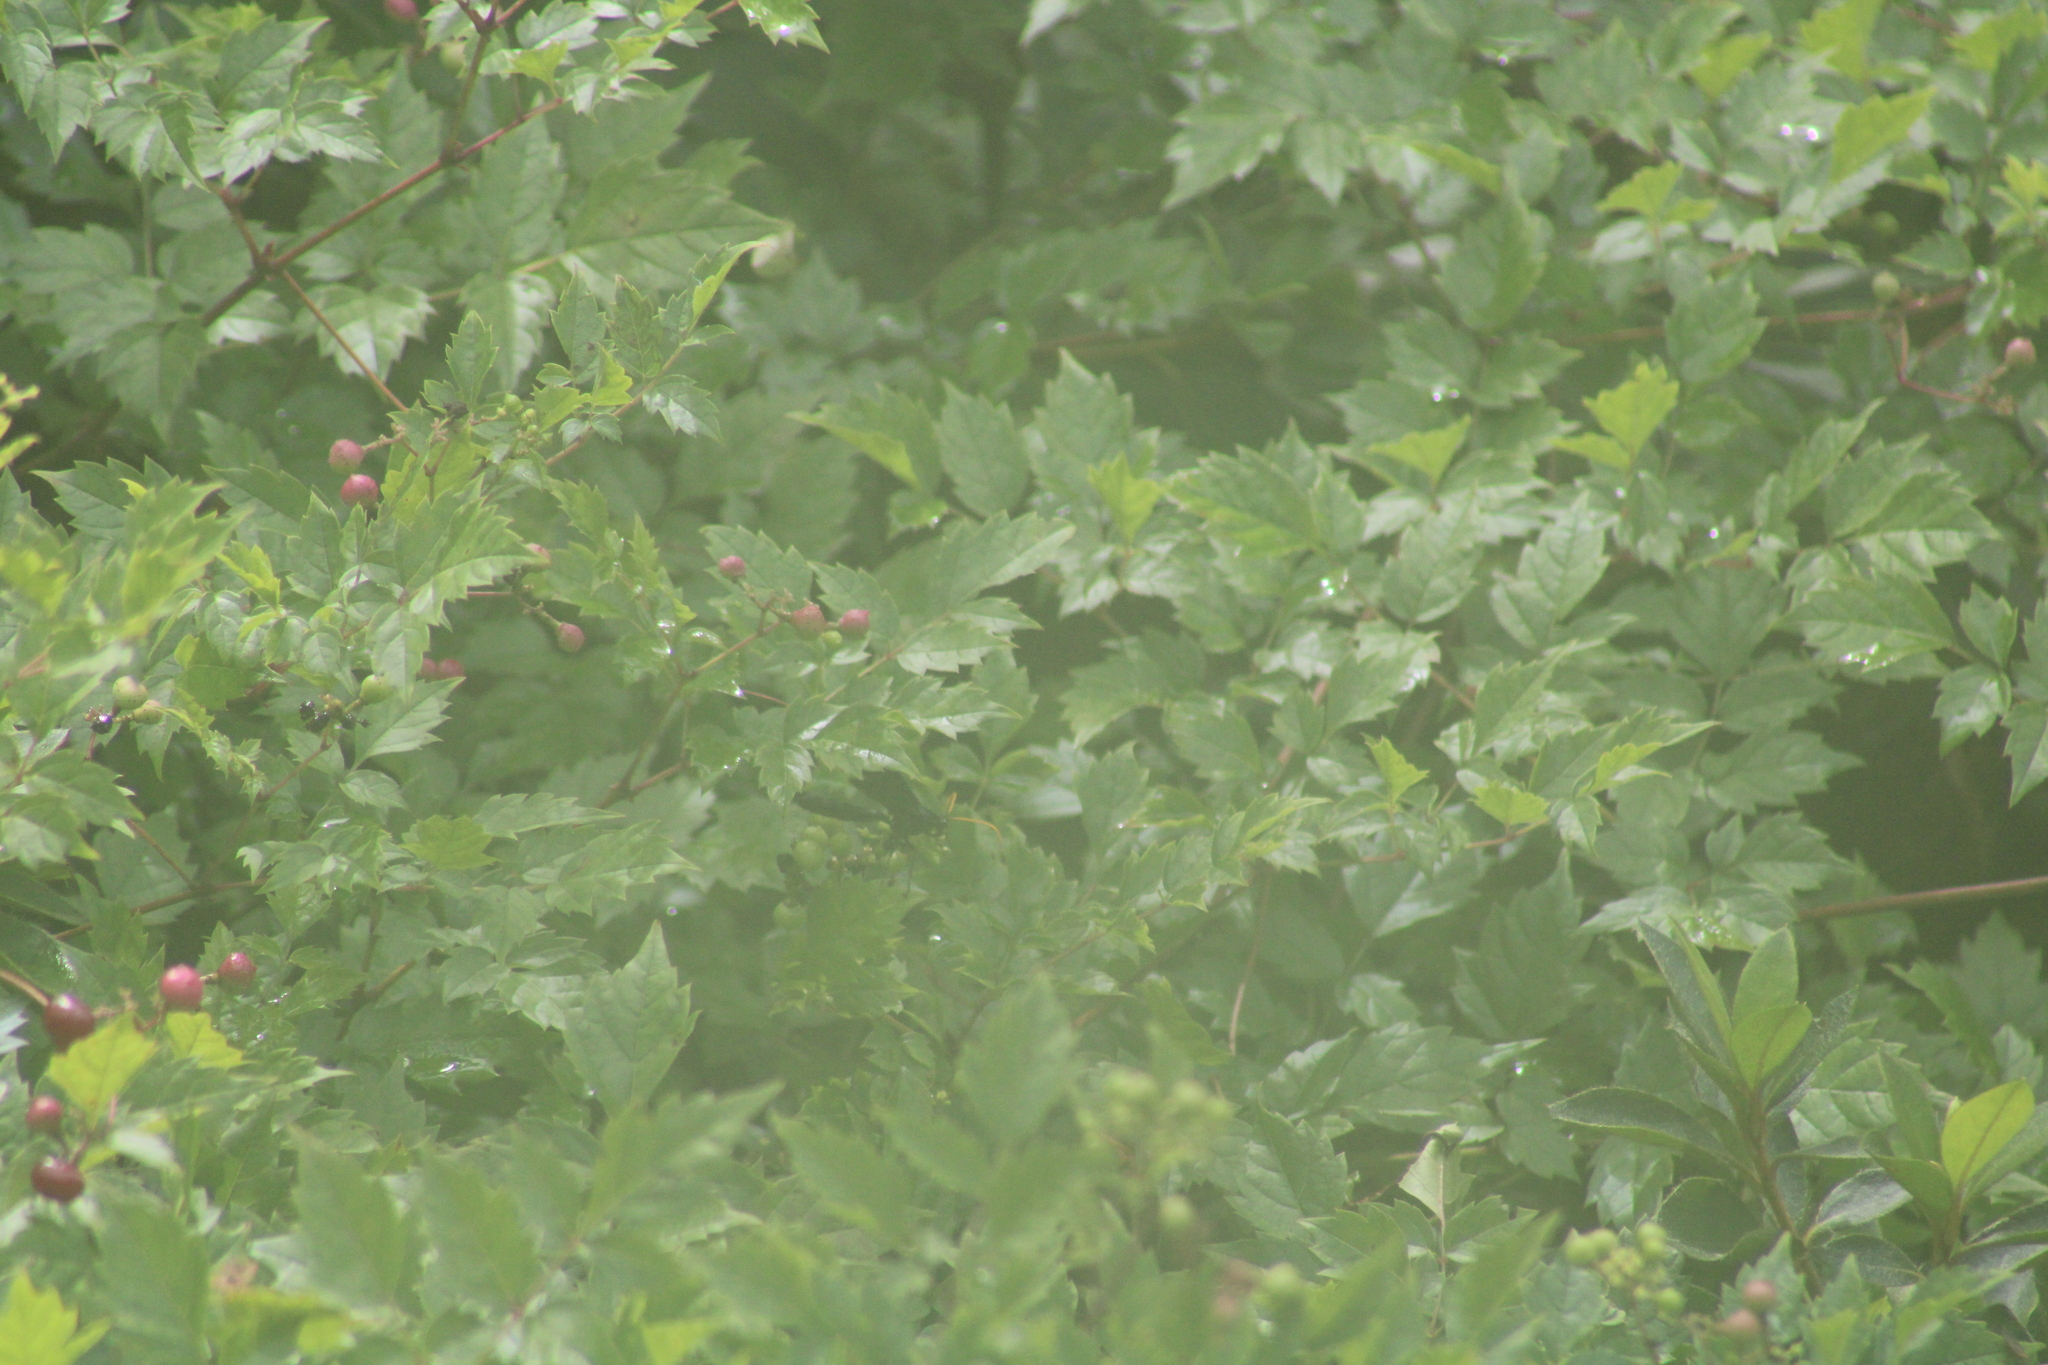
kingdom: Plantae
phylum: Tracheophyta
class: Magnoliopsida
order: Vitales
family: Vitaceae
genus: Nekemias
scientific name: Nekemias arborea
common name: Peppervine
